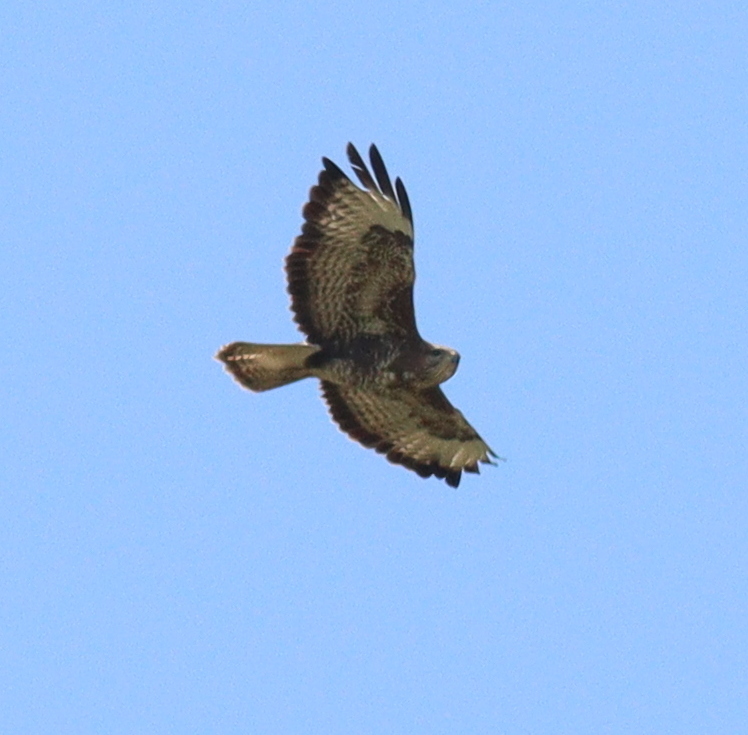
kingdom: Animalia
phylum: Chordata
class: Aves
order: Accipitriformes
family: Accipitridae
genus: Buteo
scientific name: Buteo buteo
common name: Common buzzard
